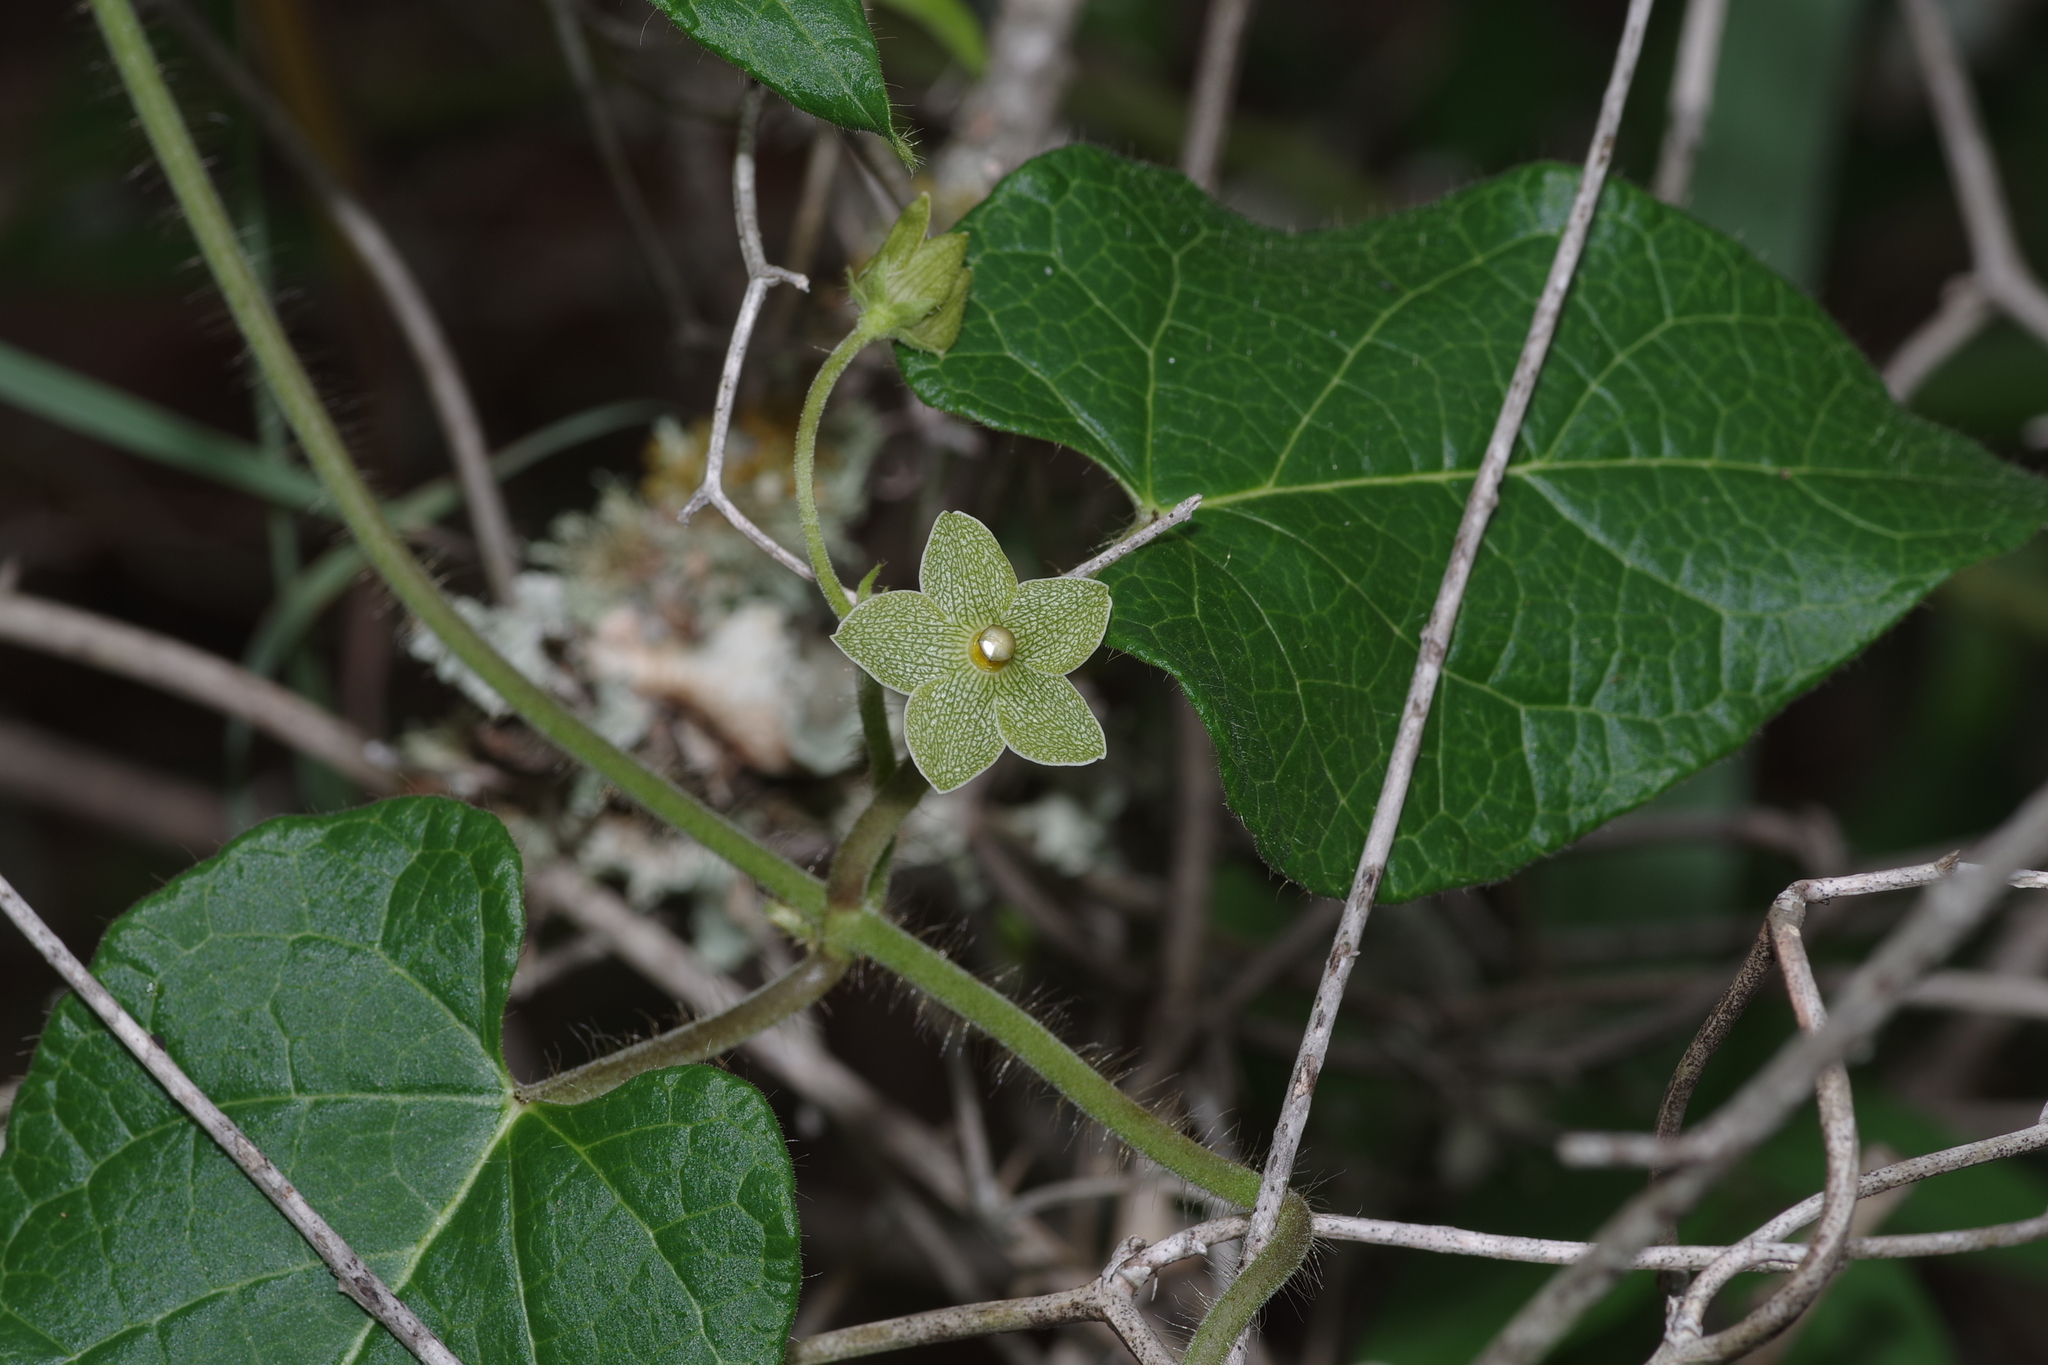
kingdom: Plantae
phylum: Tracheophyta
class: Magnoliopsida
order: Gentianales
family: Apocynaceae
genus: Dictyanthus
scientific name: Dictyanthus reticulatus
